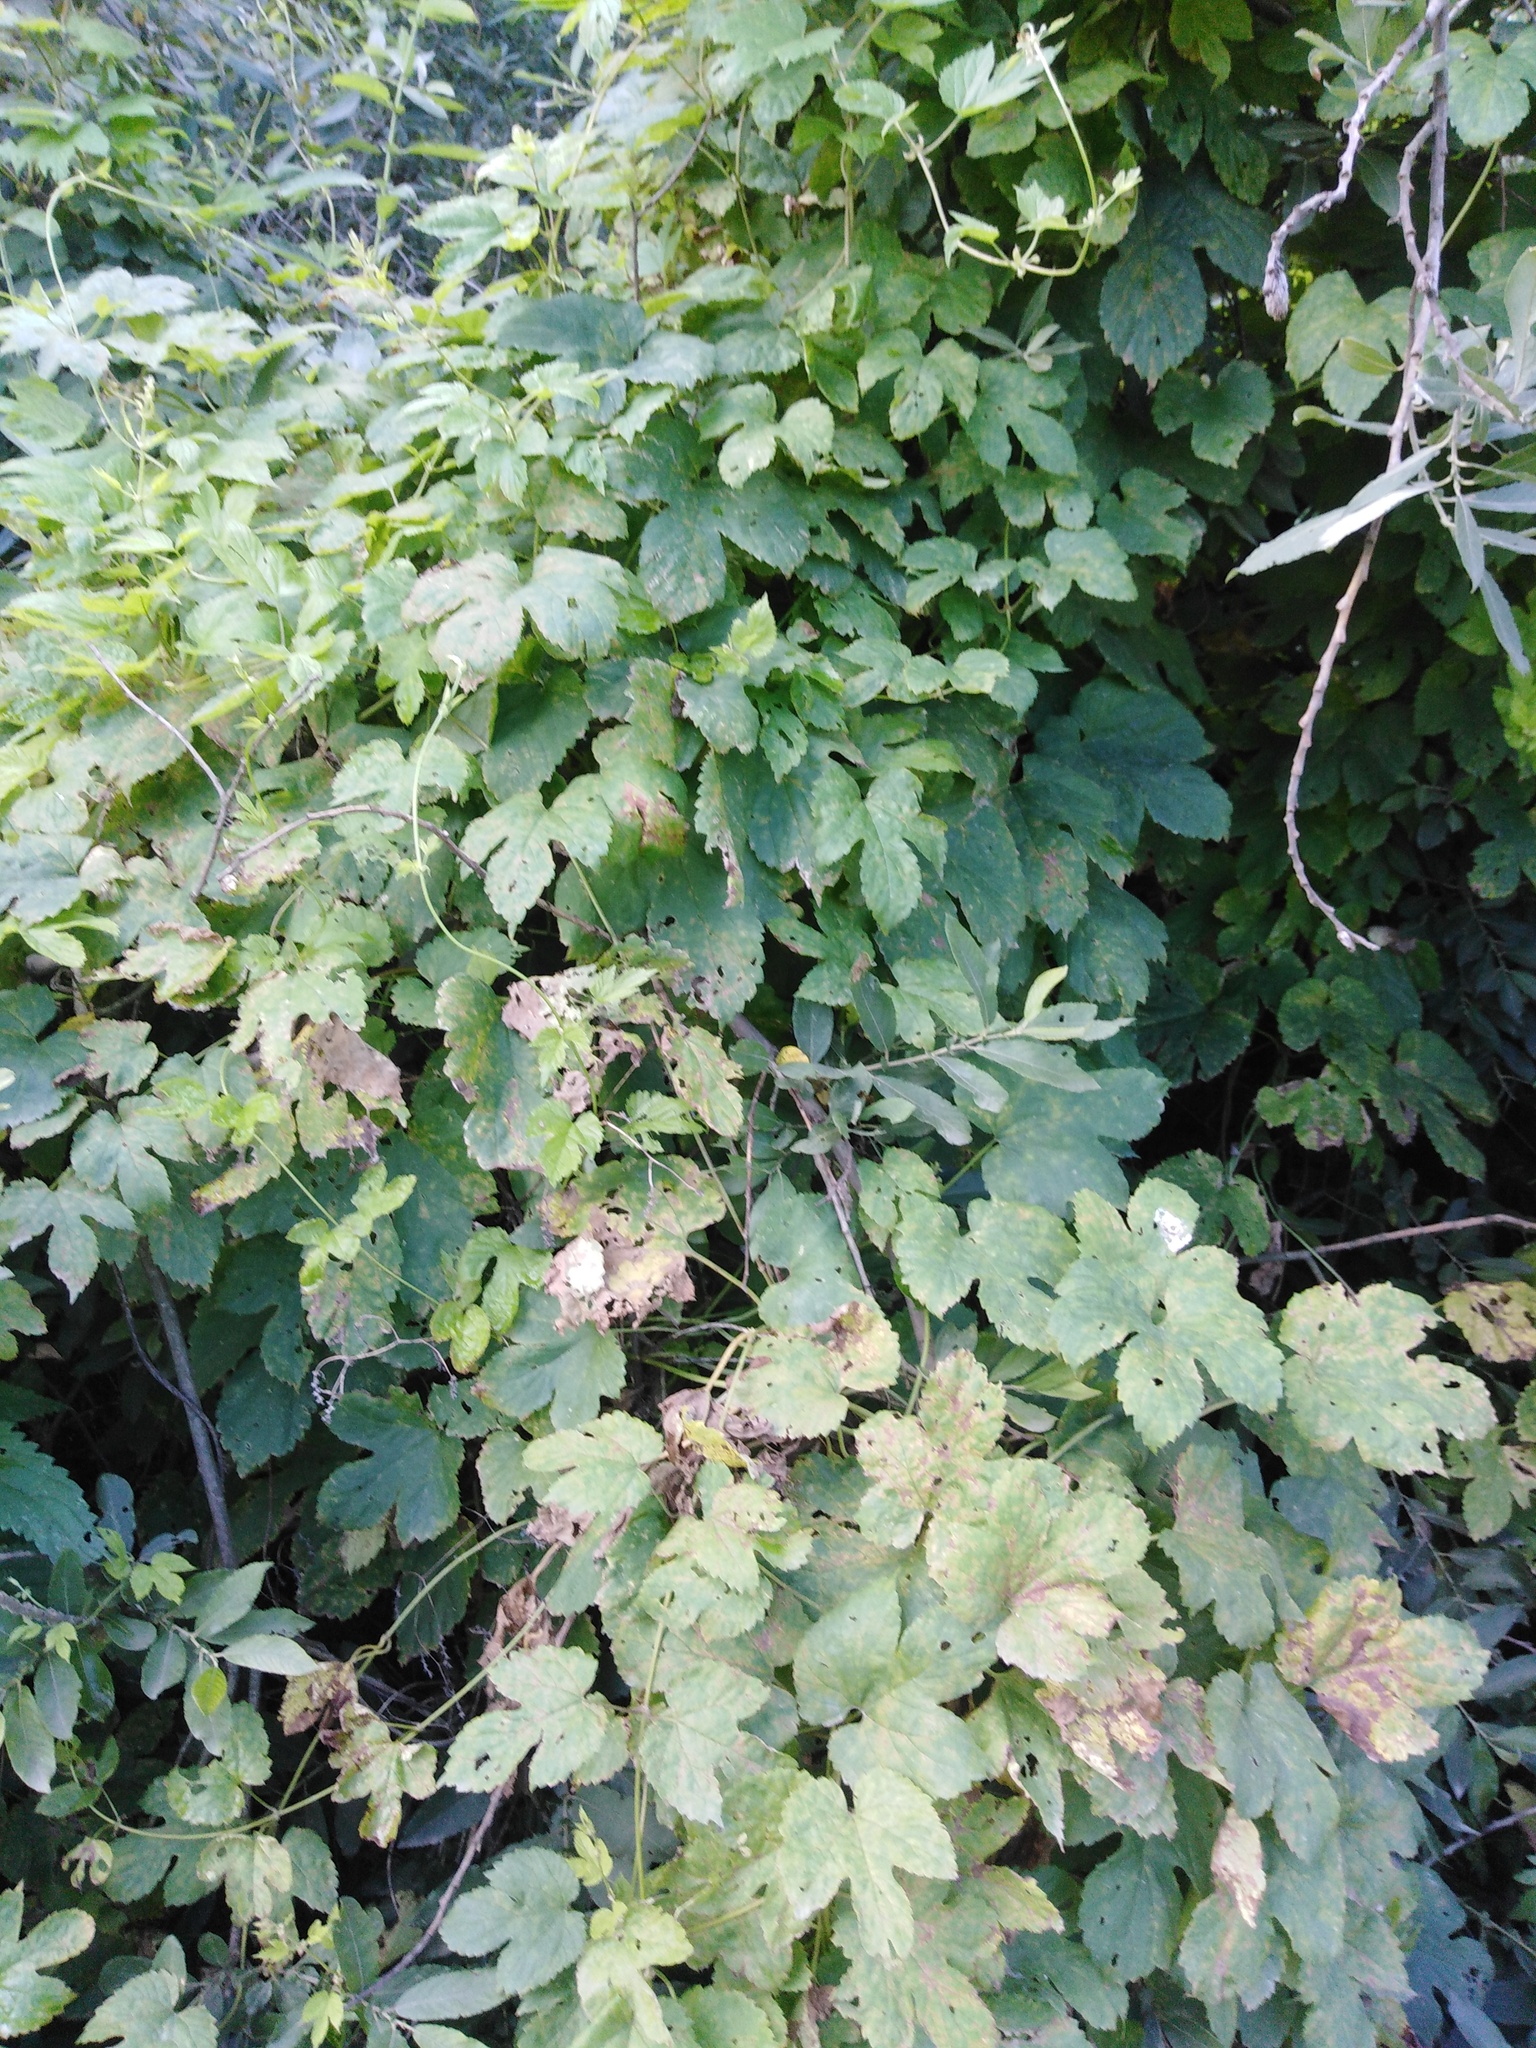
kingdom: Plantae
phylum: Tracheophyta
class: Magnoliopsida
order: Rosales
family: Cannabaceae
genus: Humulus
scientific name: Humulus lupulus
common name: Hop
